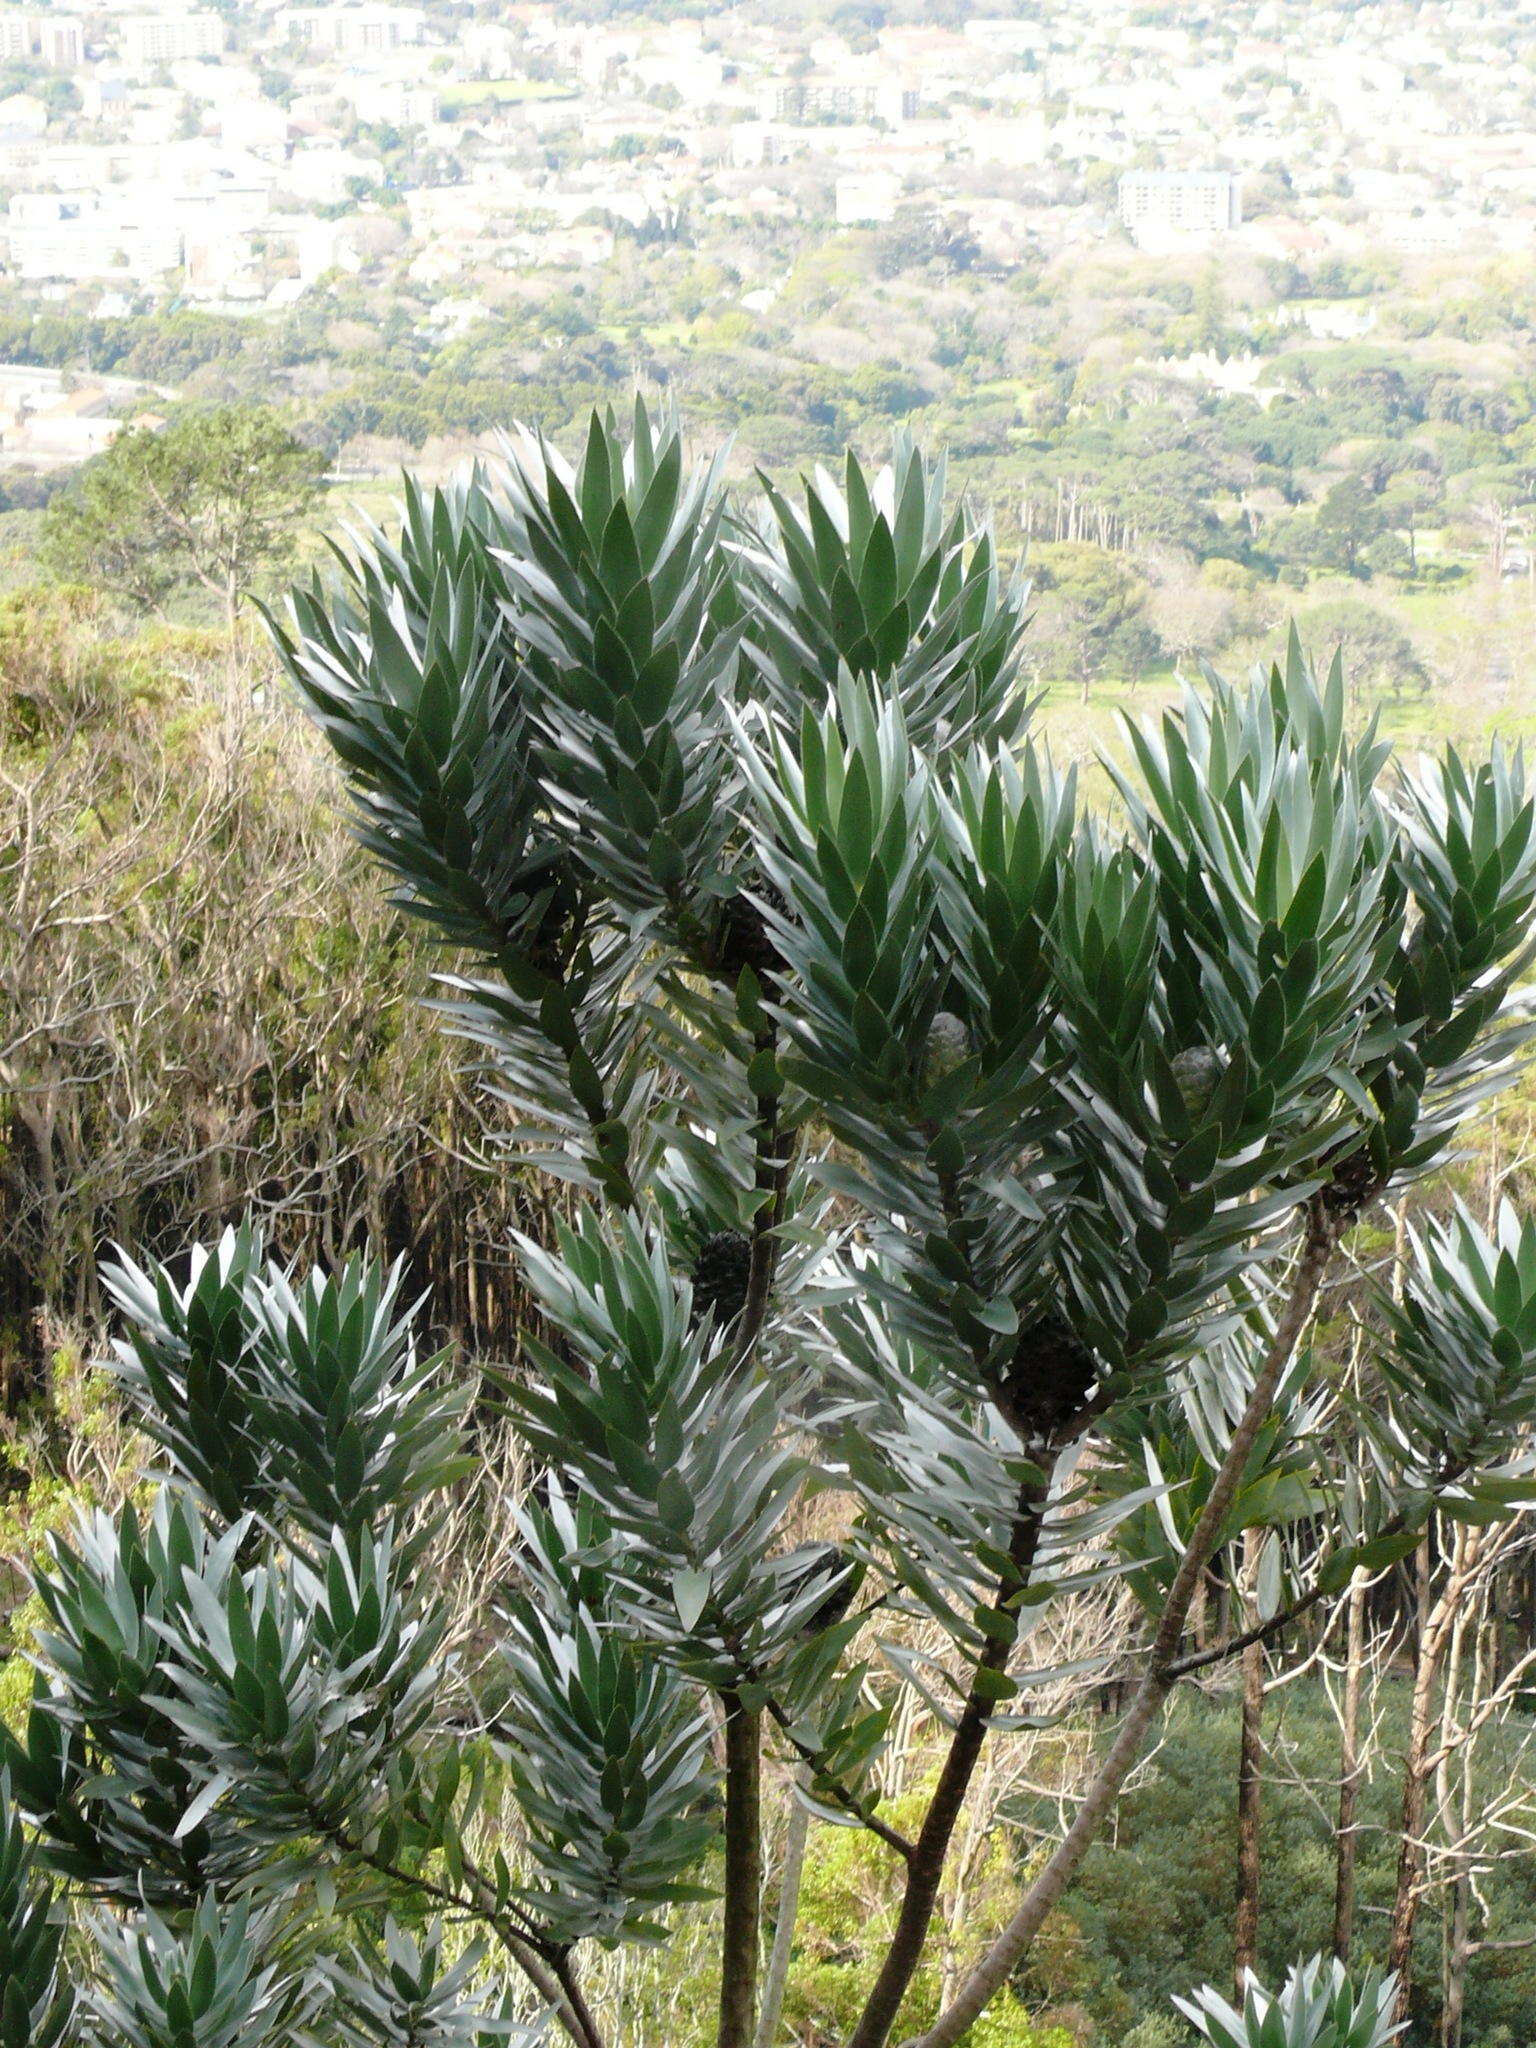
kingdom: Plantae
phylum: Tracheophyta
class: Magnoliopsida
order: Proteales
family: Proteaceae
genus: Leucadendron
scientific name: Leucadendron argenteum
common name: Cape silver tree
